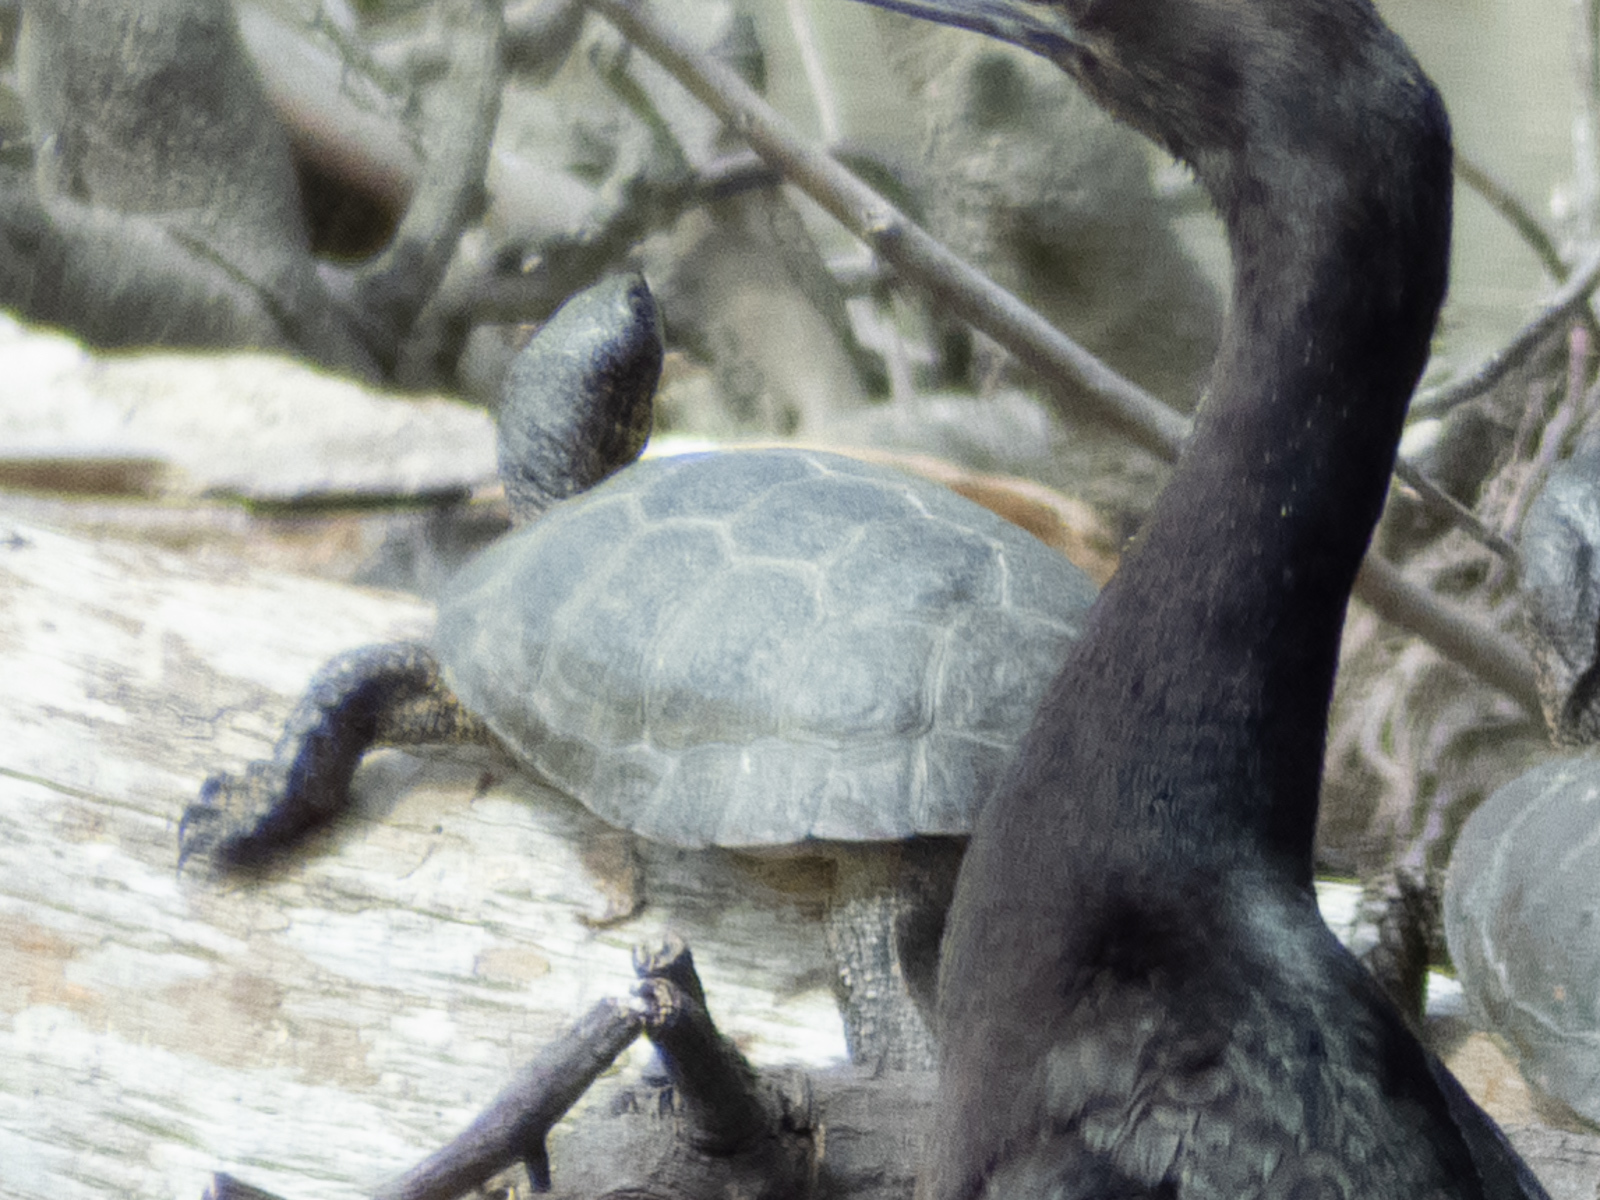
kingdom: Animalia
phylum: Chordata
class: Testudines
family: Emydidae
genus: Actinemys
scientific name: Actinemys marmorata
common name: Western pond turtle
